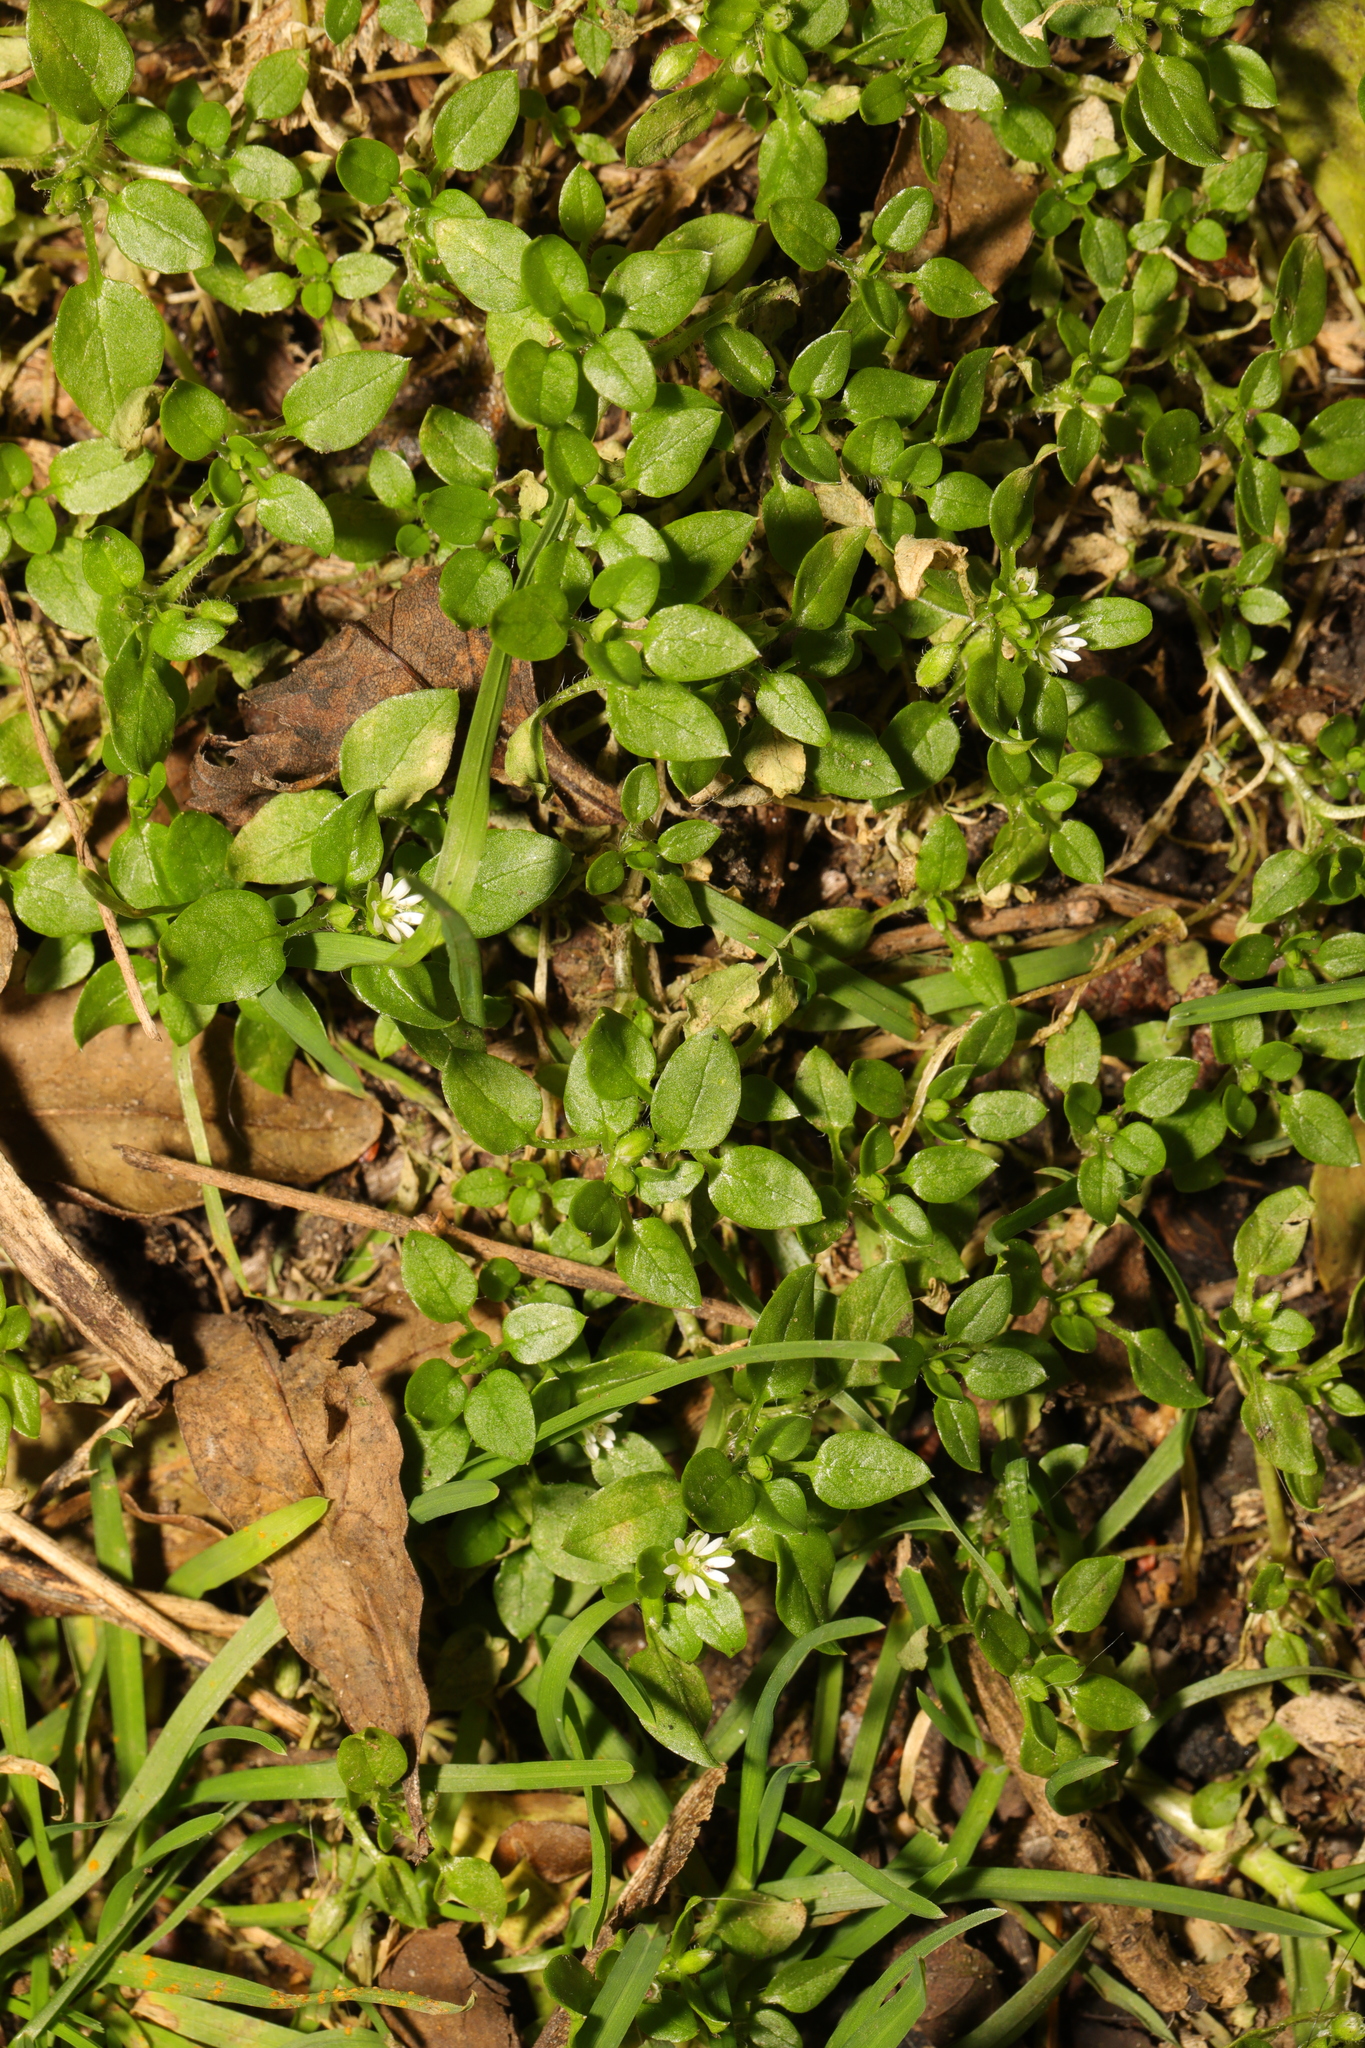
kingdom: Plantae
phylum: Tracheophyta
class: Magnoliopsida
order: Caryophyllales
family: Caryophyllaceae
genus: Stellaria
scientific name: Stellaria media
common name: Common chickweed
